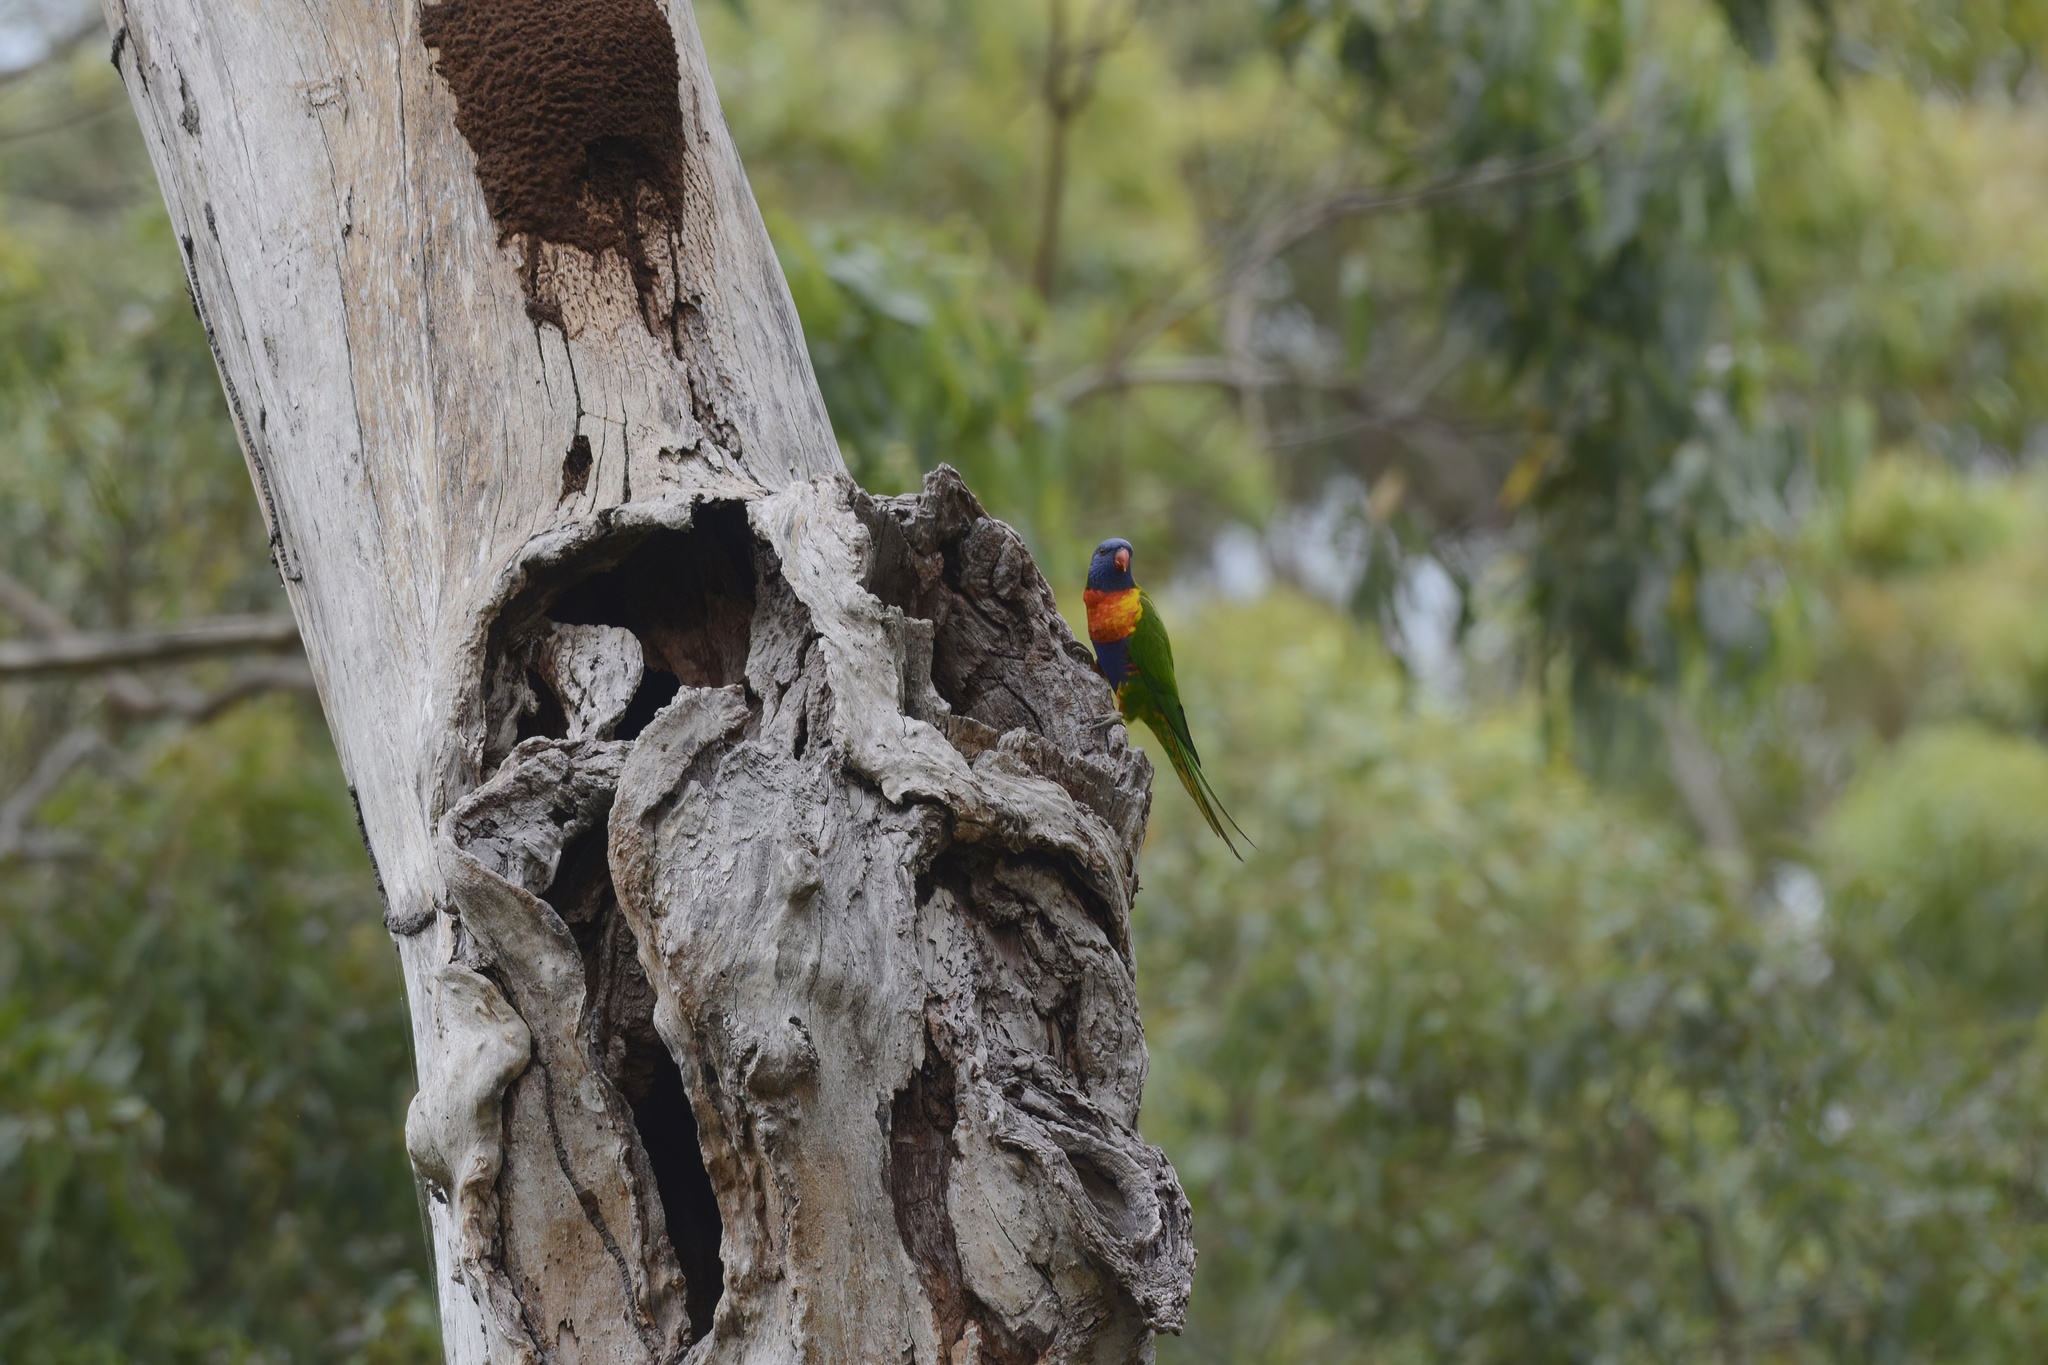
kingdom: Animalia
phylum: Chordata
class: Aves
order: Psittaciformes
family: Psittacidae
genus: Trichoglossus
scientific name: Trichoglossus haematodus
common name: Coconut lorikeet
